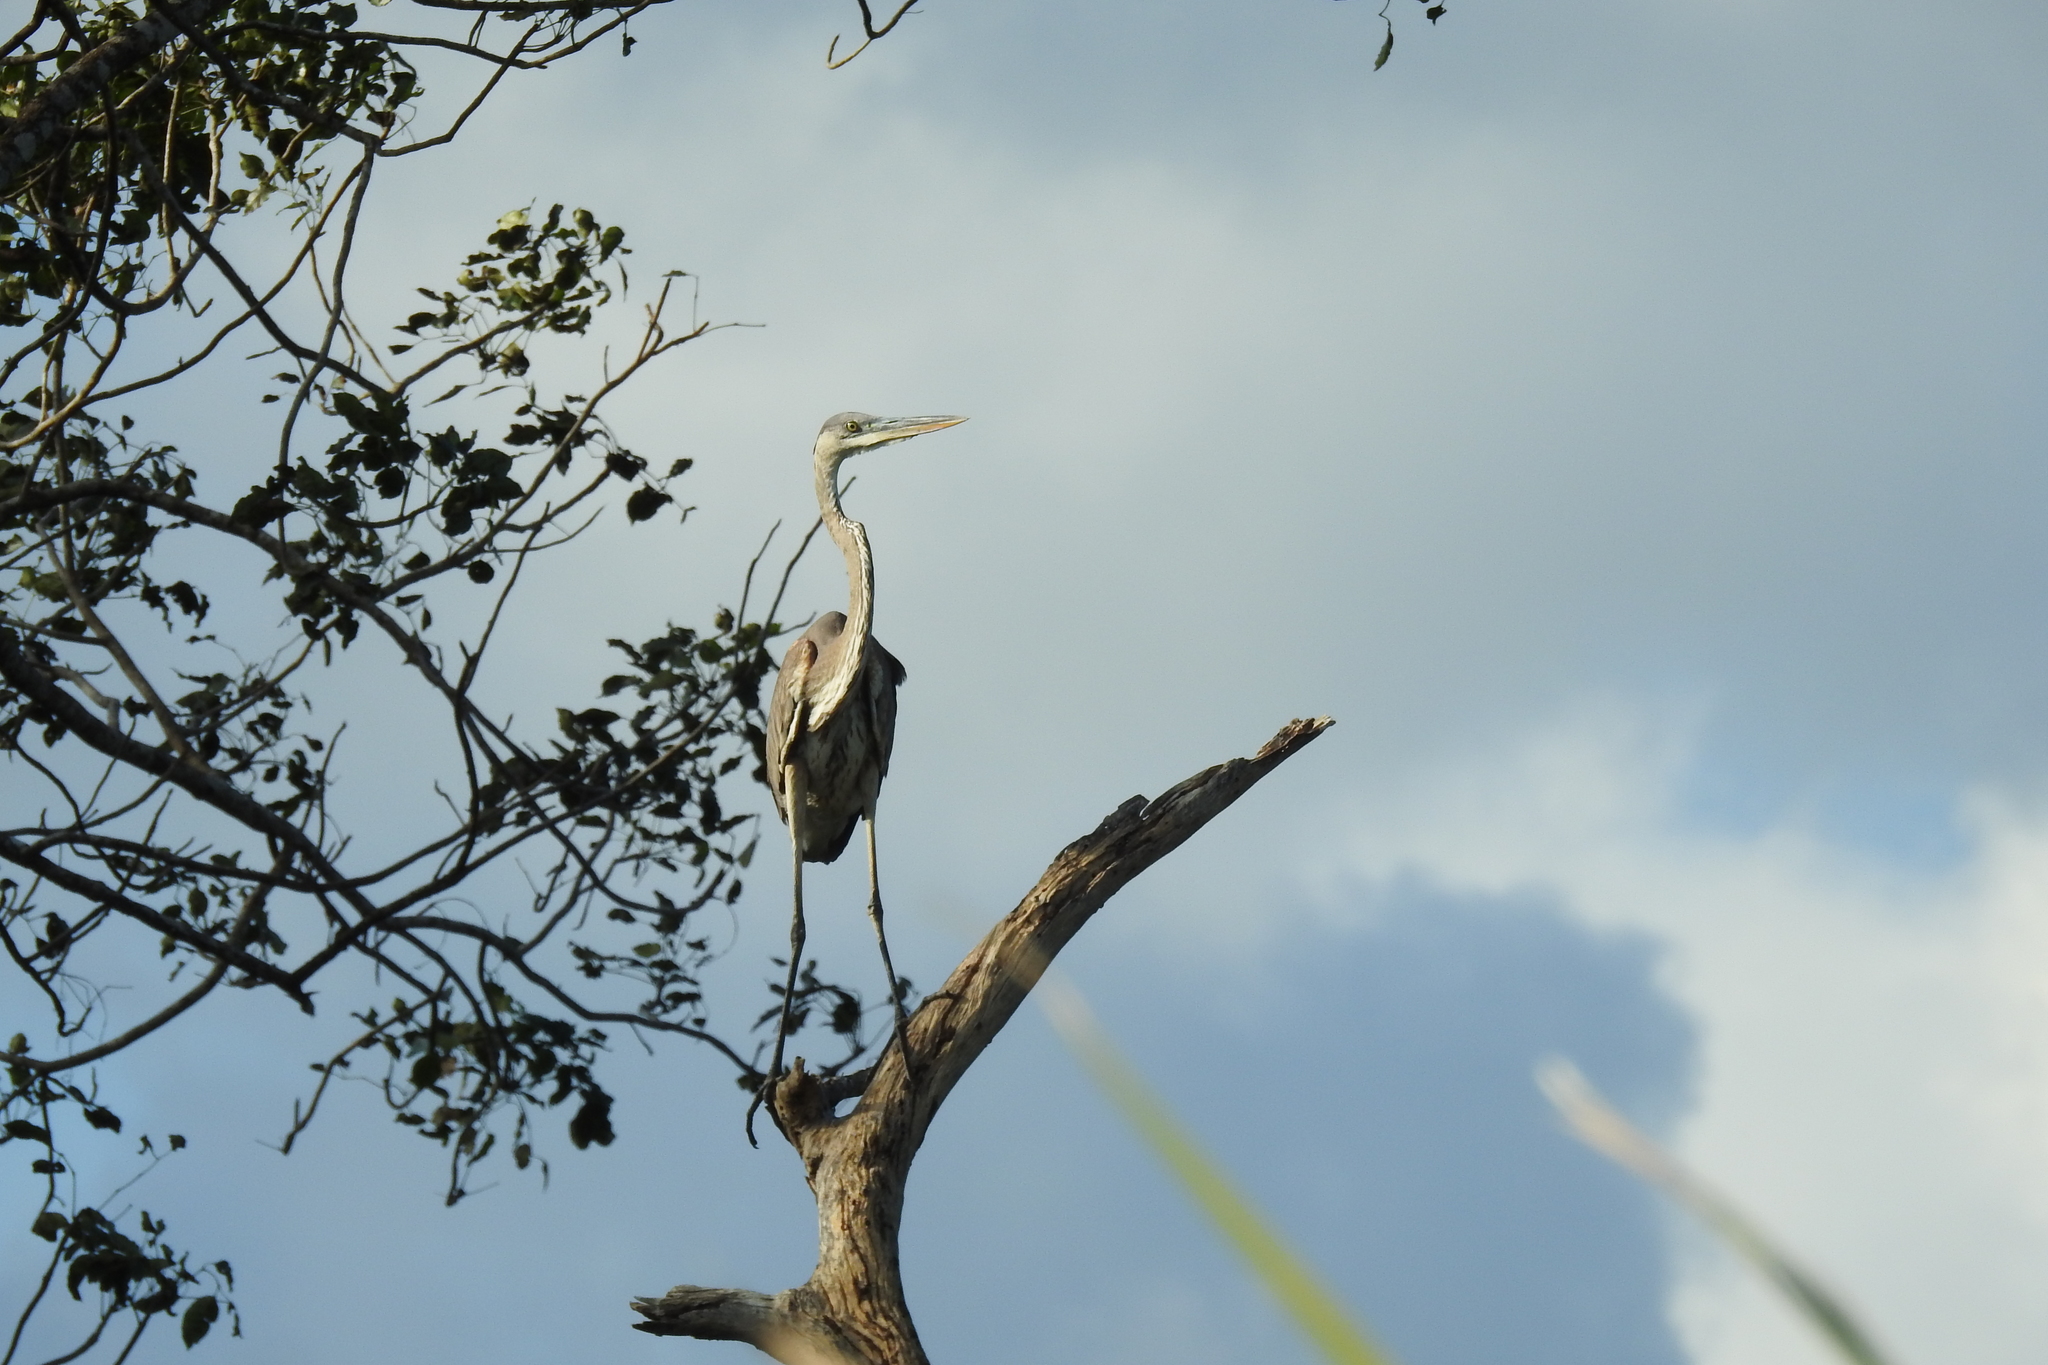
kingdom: Animalia
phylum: Chordata
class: Aves
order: Pelecaniformes
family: Ardeidae
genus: Ardea
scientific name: Ardea herodias
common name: Great blue heron
